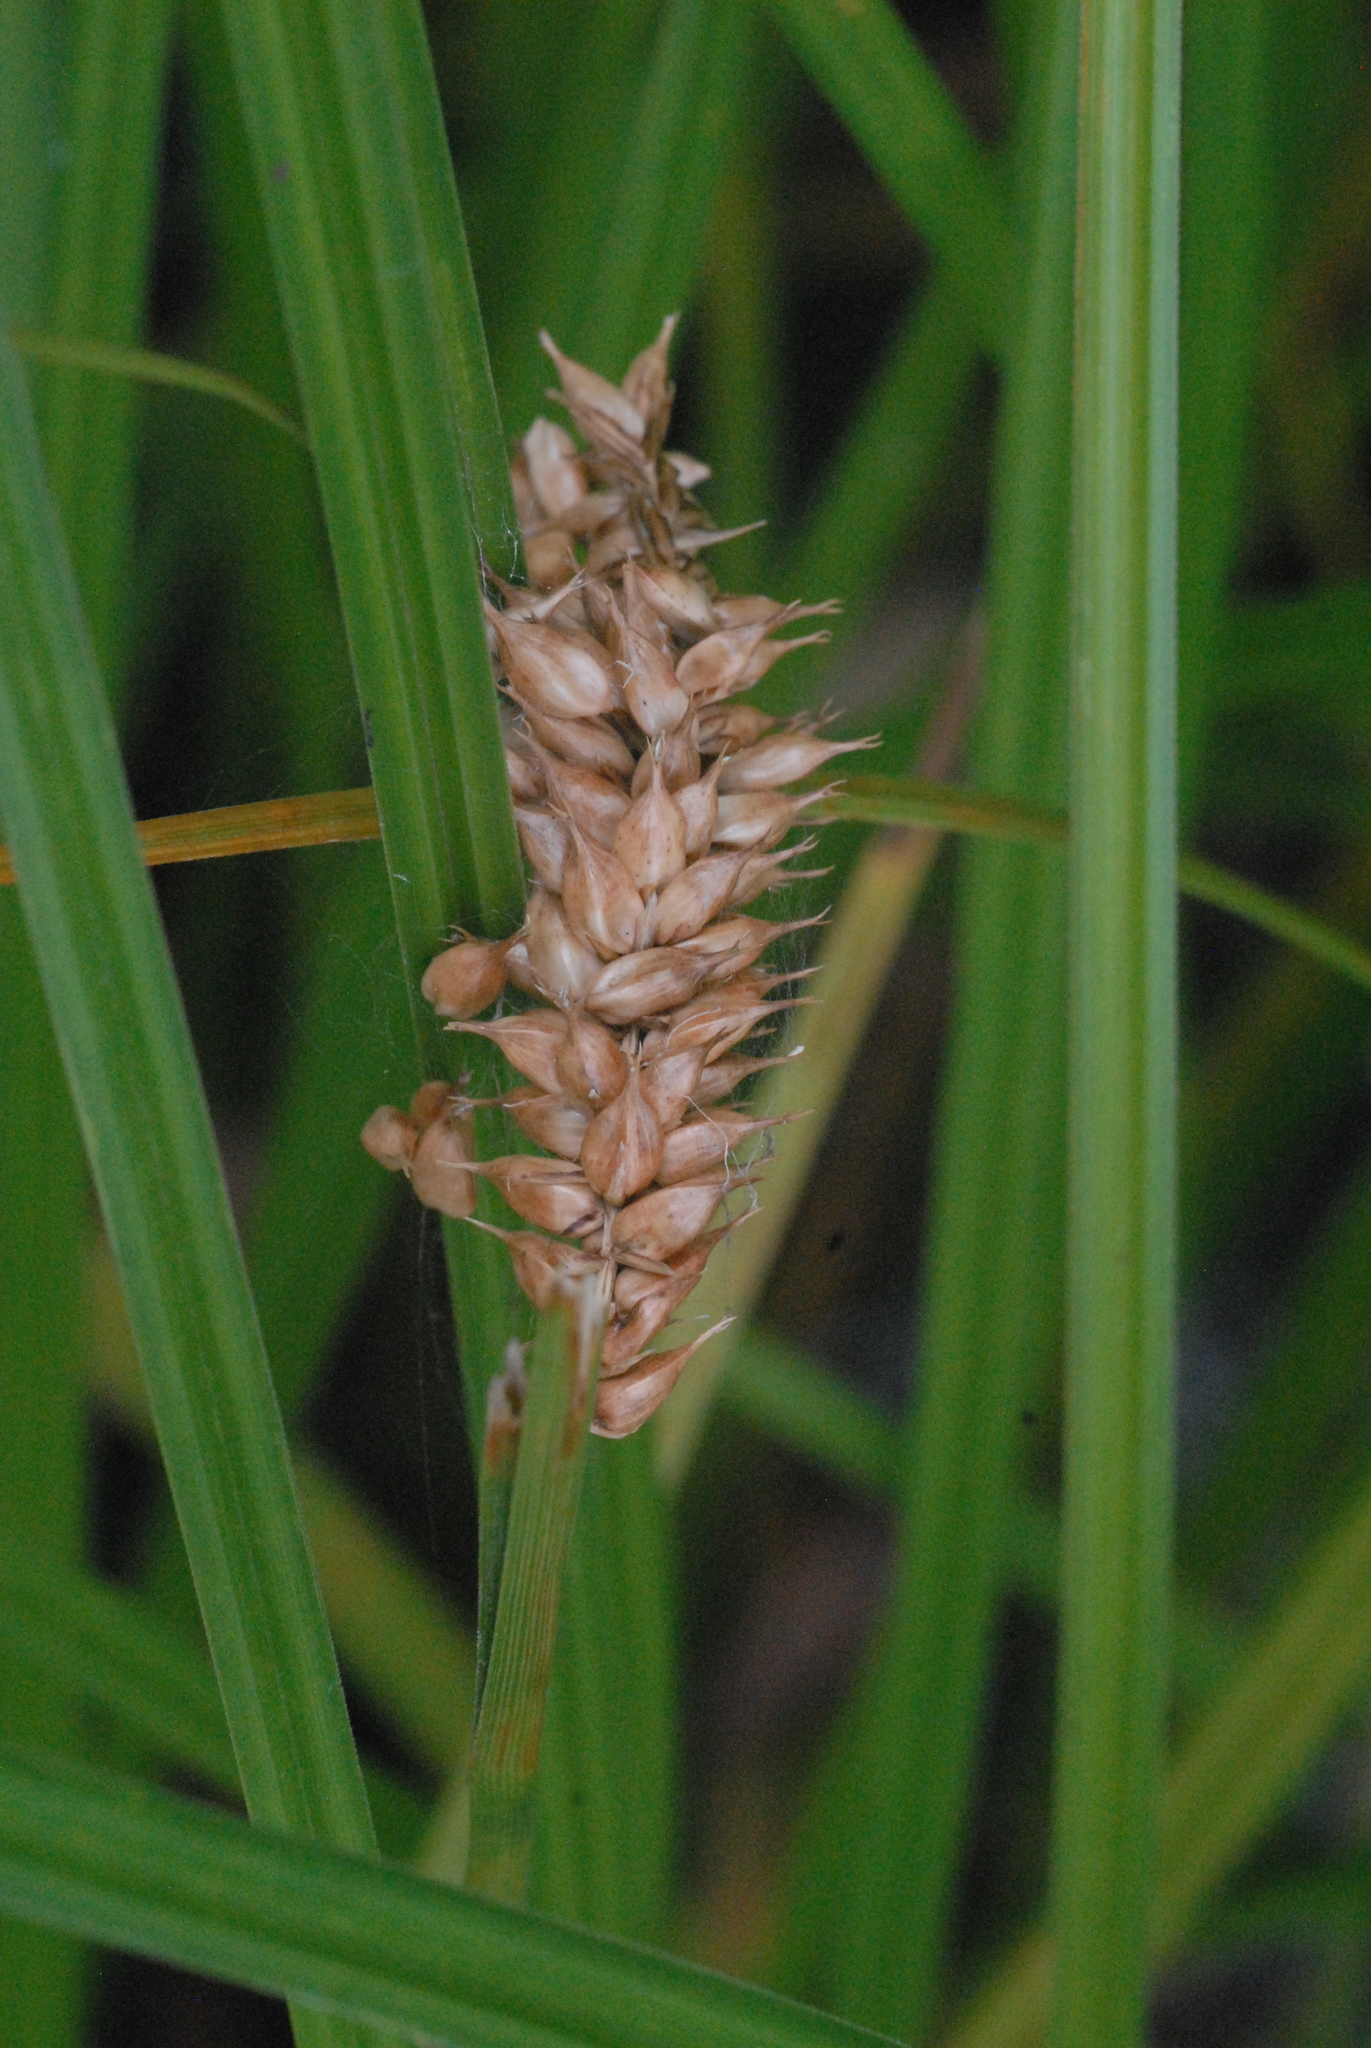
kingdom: Plantae
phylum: Tracheophyta
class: Liliopsida
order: Poales
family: Cyperaceae
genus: Carex
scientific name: Carex vesicaria
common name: Bladder-sedge
